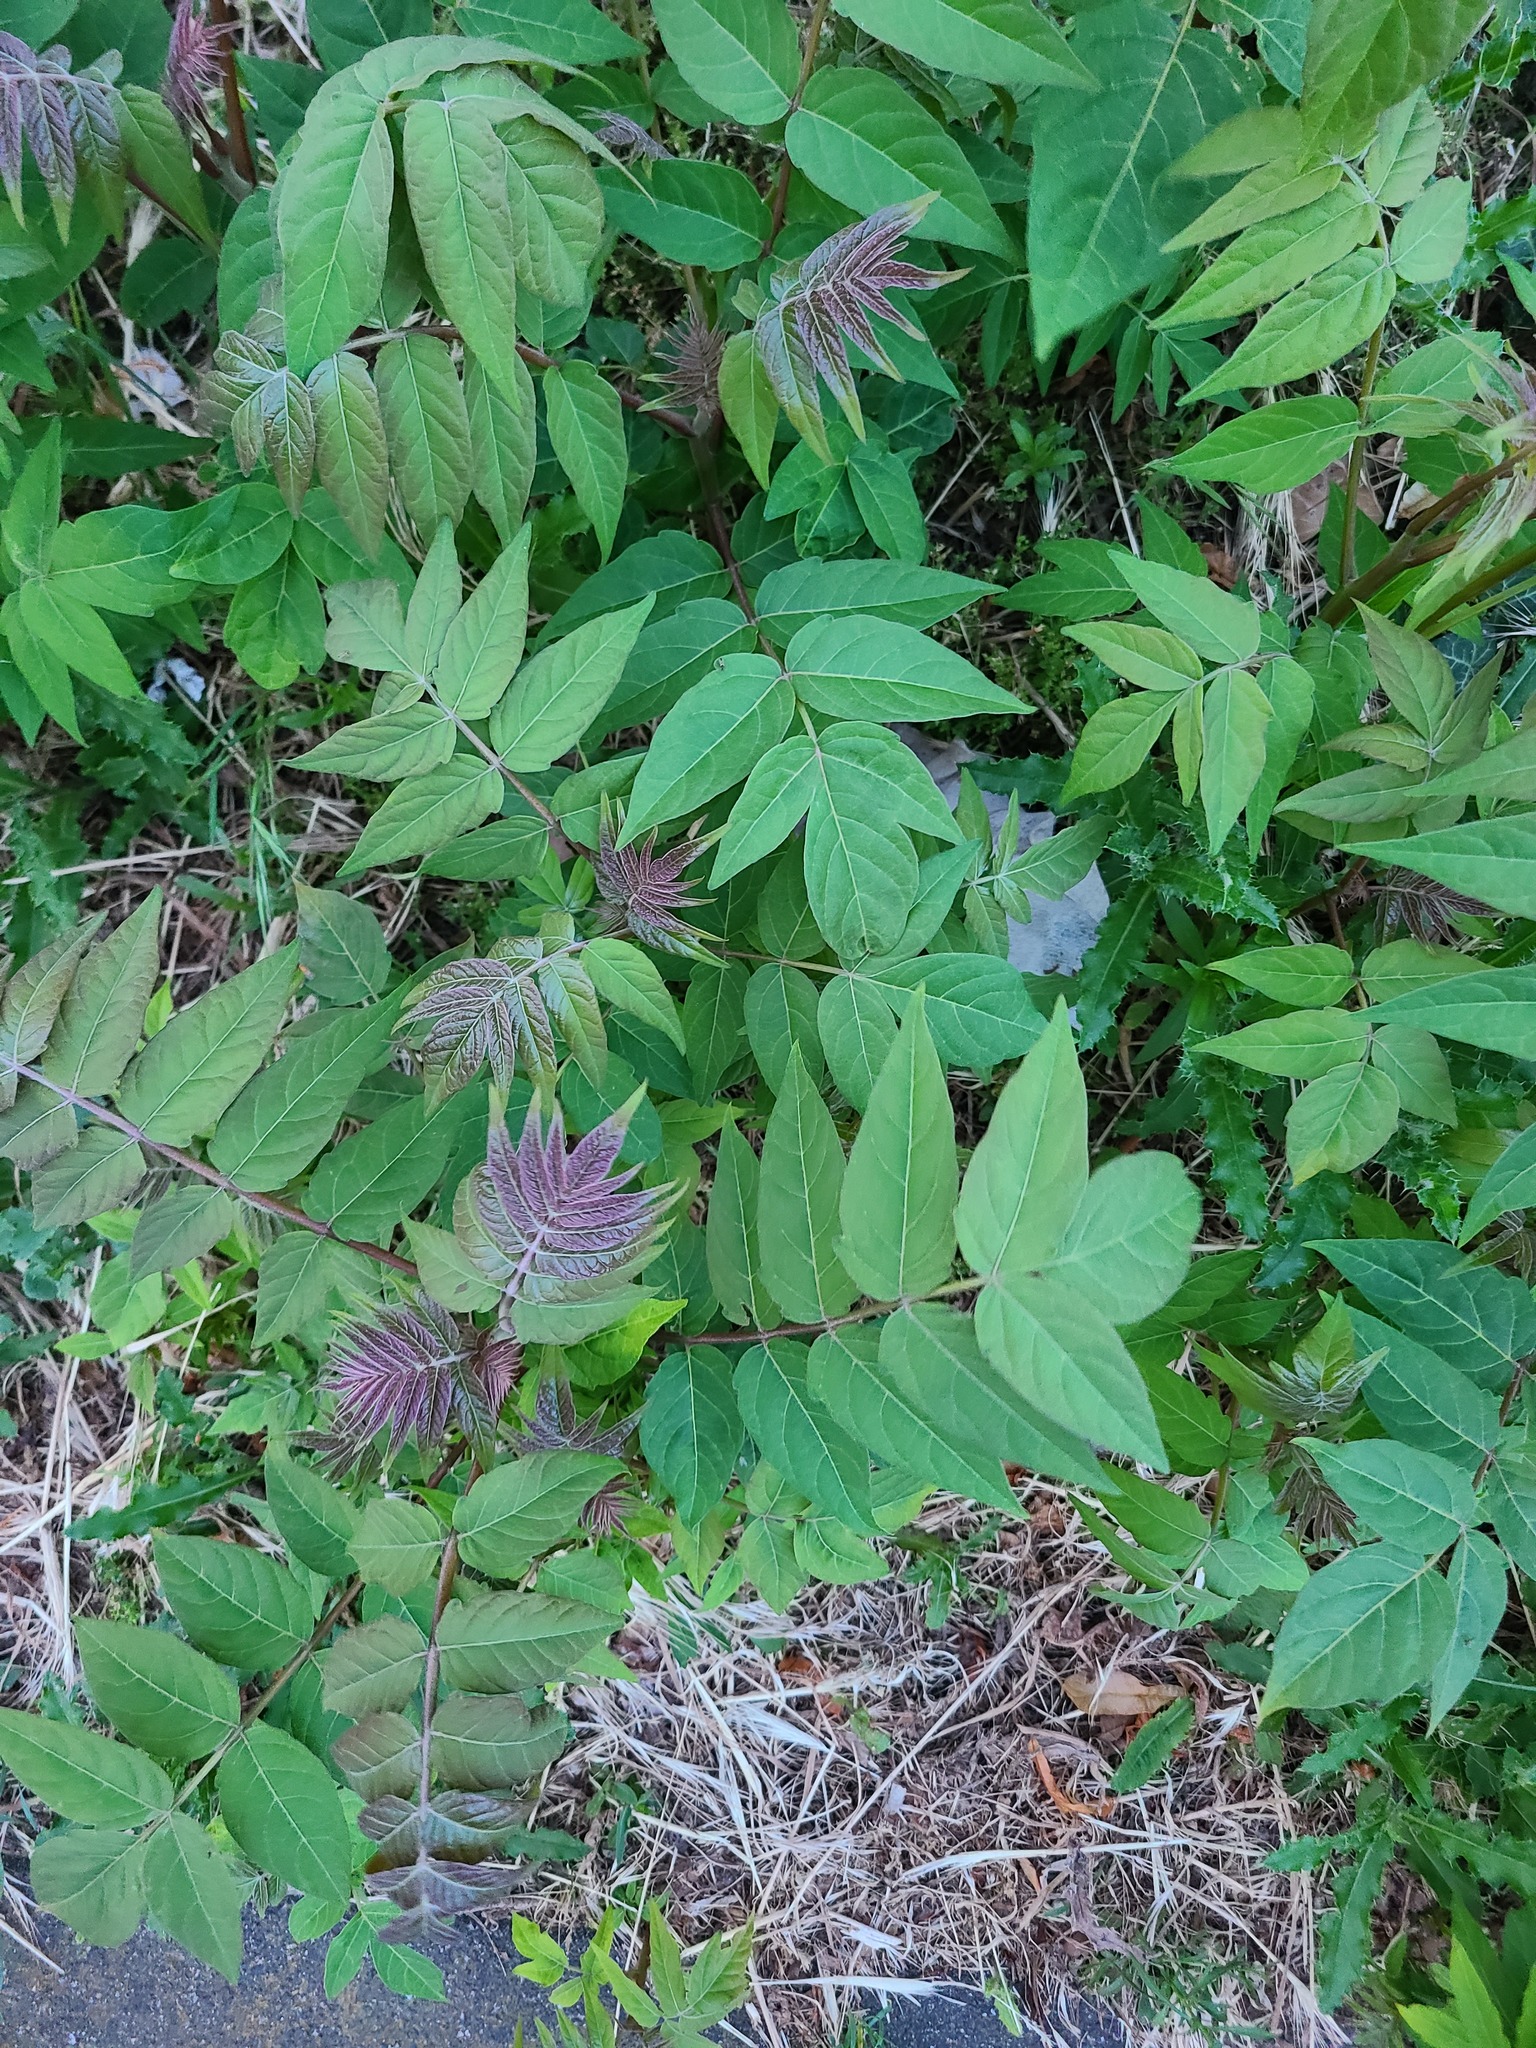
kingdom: Plantae
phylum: Tracheophyta
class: Magnoliopsida
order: Sapindales
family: Simaroubaceae
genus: Ailanthus
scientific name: Ailanthus altissima
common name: Tree-of-heaven
